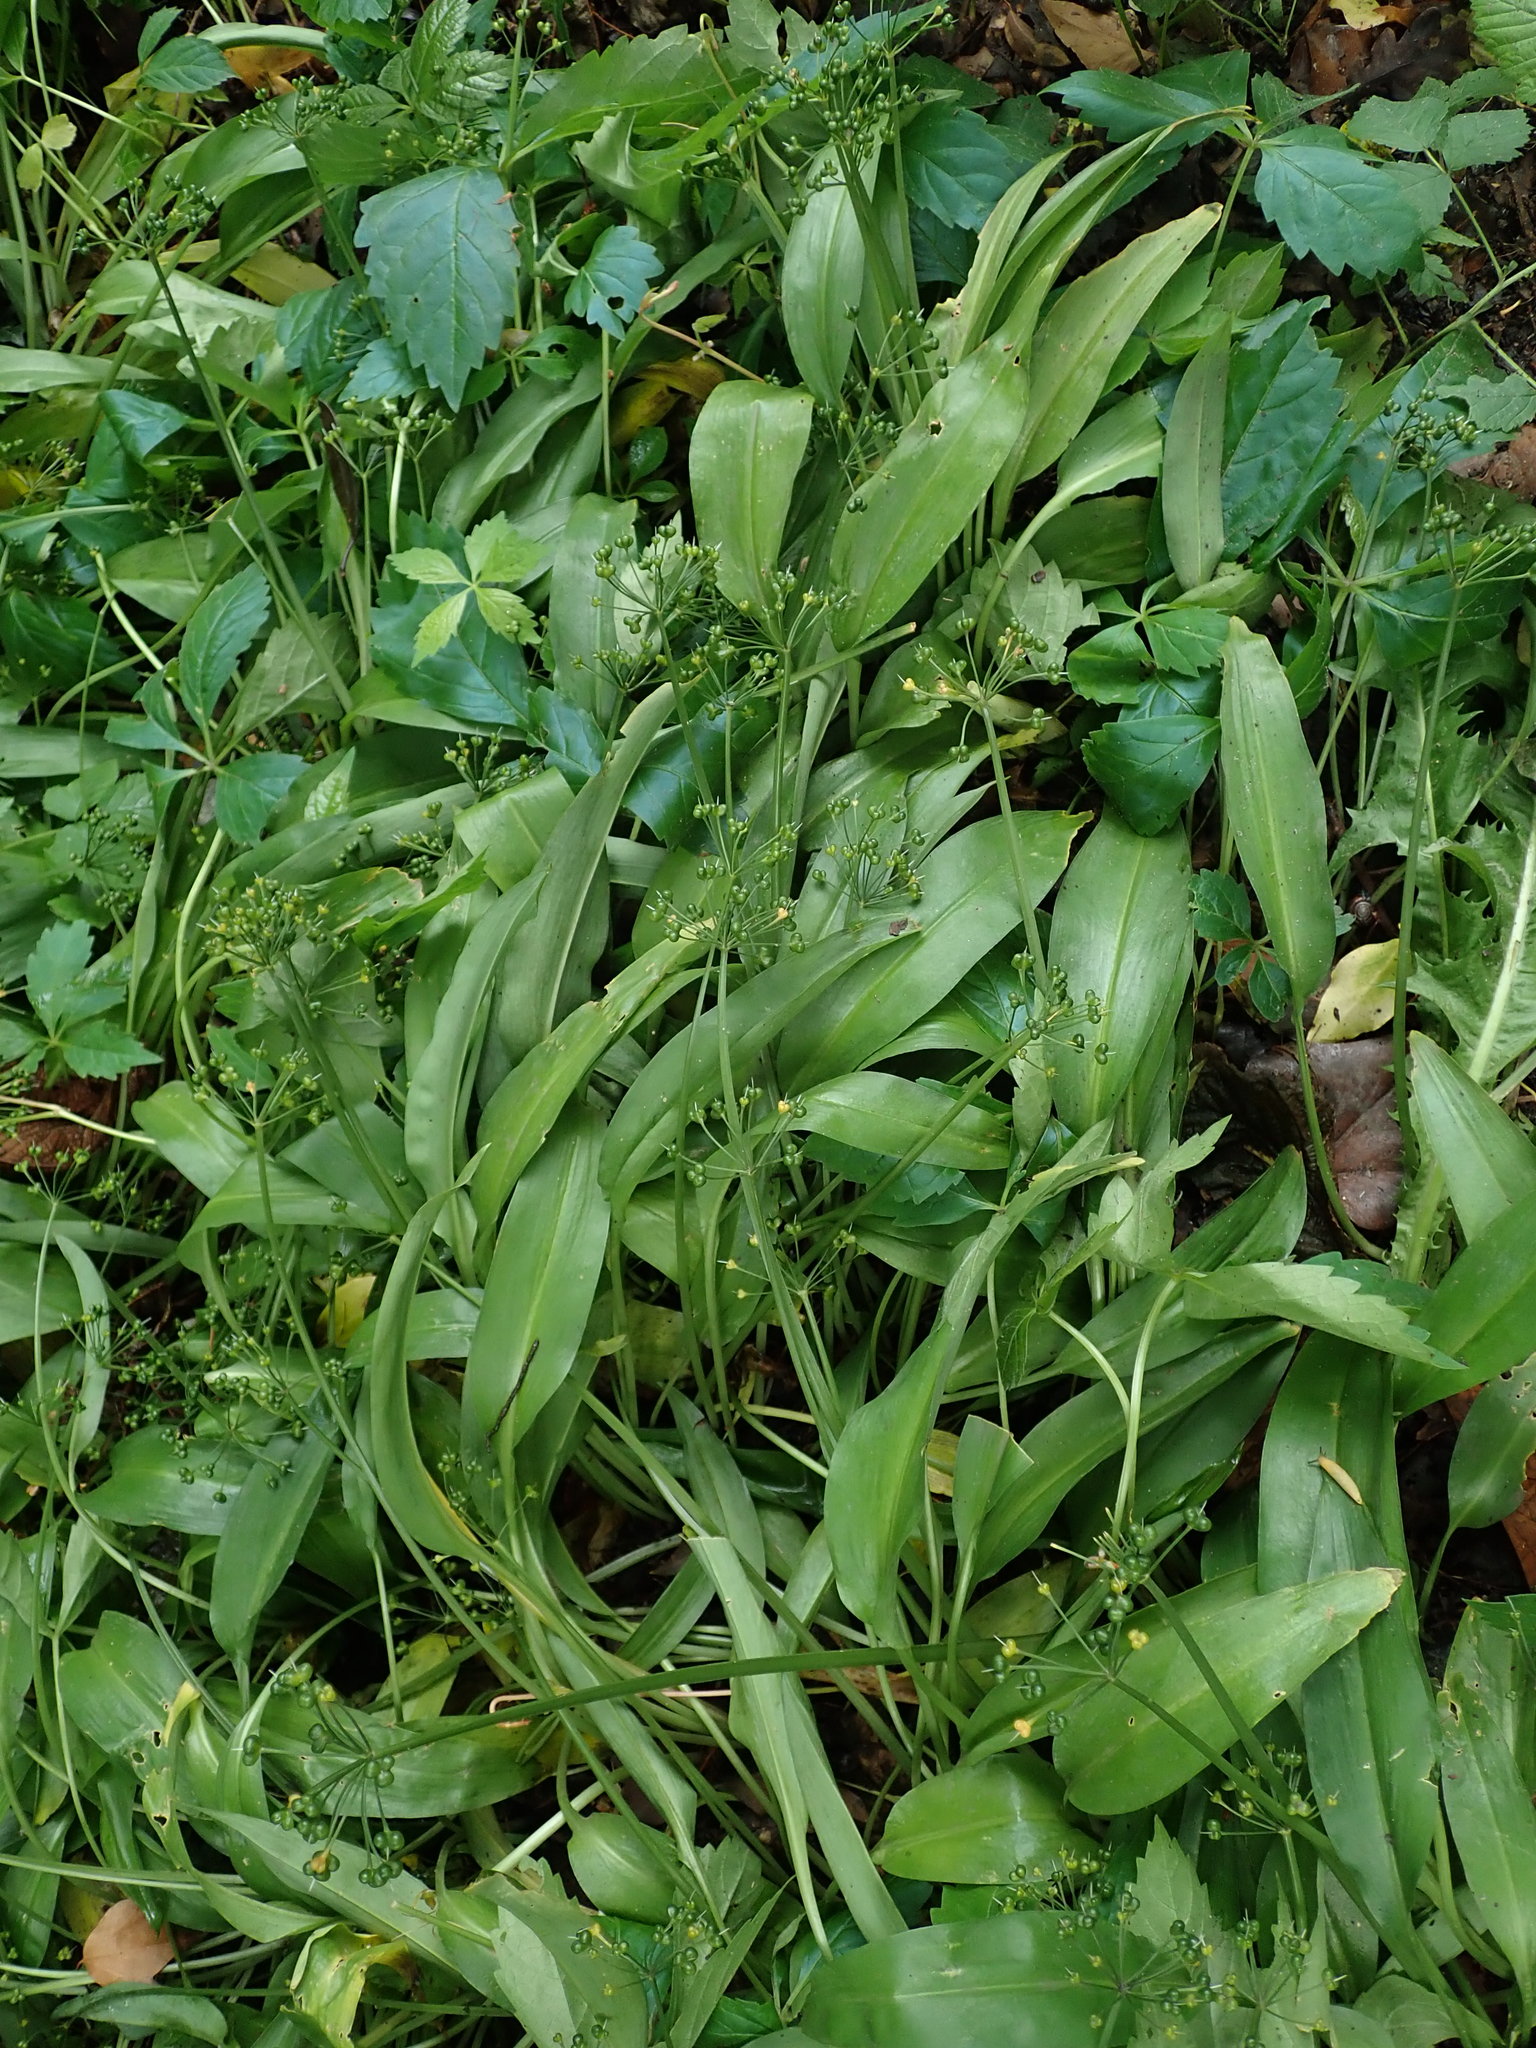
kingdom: Plantae
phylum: Tracheophyta
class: Liliopsida
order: Asparagales
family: Amaryllidaceae
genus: Allium
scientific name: Allium ursinum
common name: Ramsons
